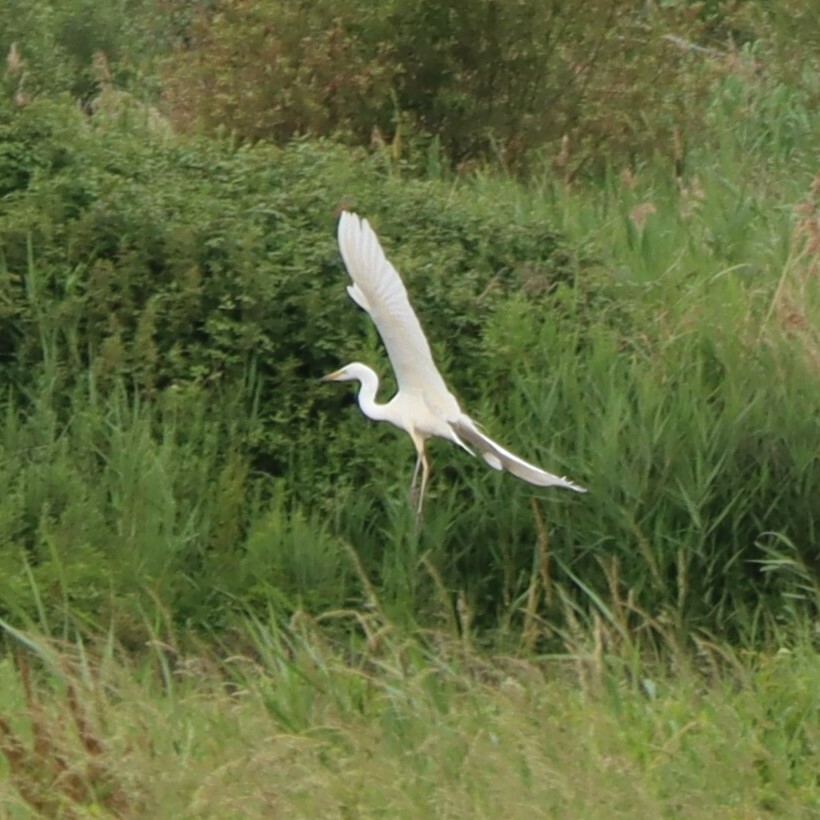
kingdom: Animalia
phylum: Chordata
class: Aves
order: Pelecaniformes
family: Ardeidae
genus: Ardea
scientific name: Ardea alba
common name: Great egret
